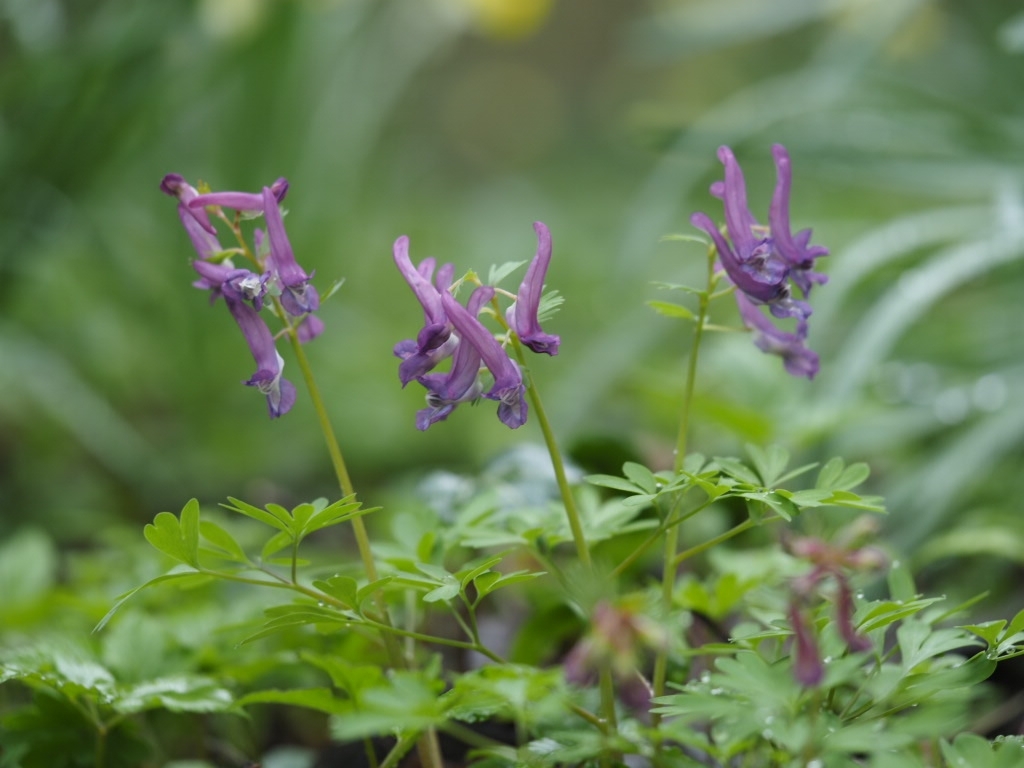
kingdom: Plantae
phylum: Tracheophyta
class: Magnoliopsida
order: Ranunculales
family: Papaveraceae
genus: Corydalis
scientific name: Corydalis solida
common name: Bird-in-a-bush
